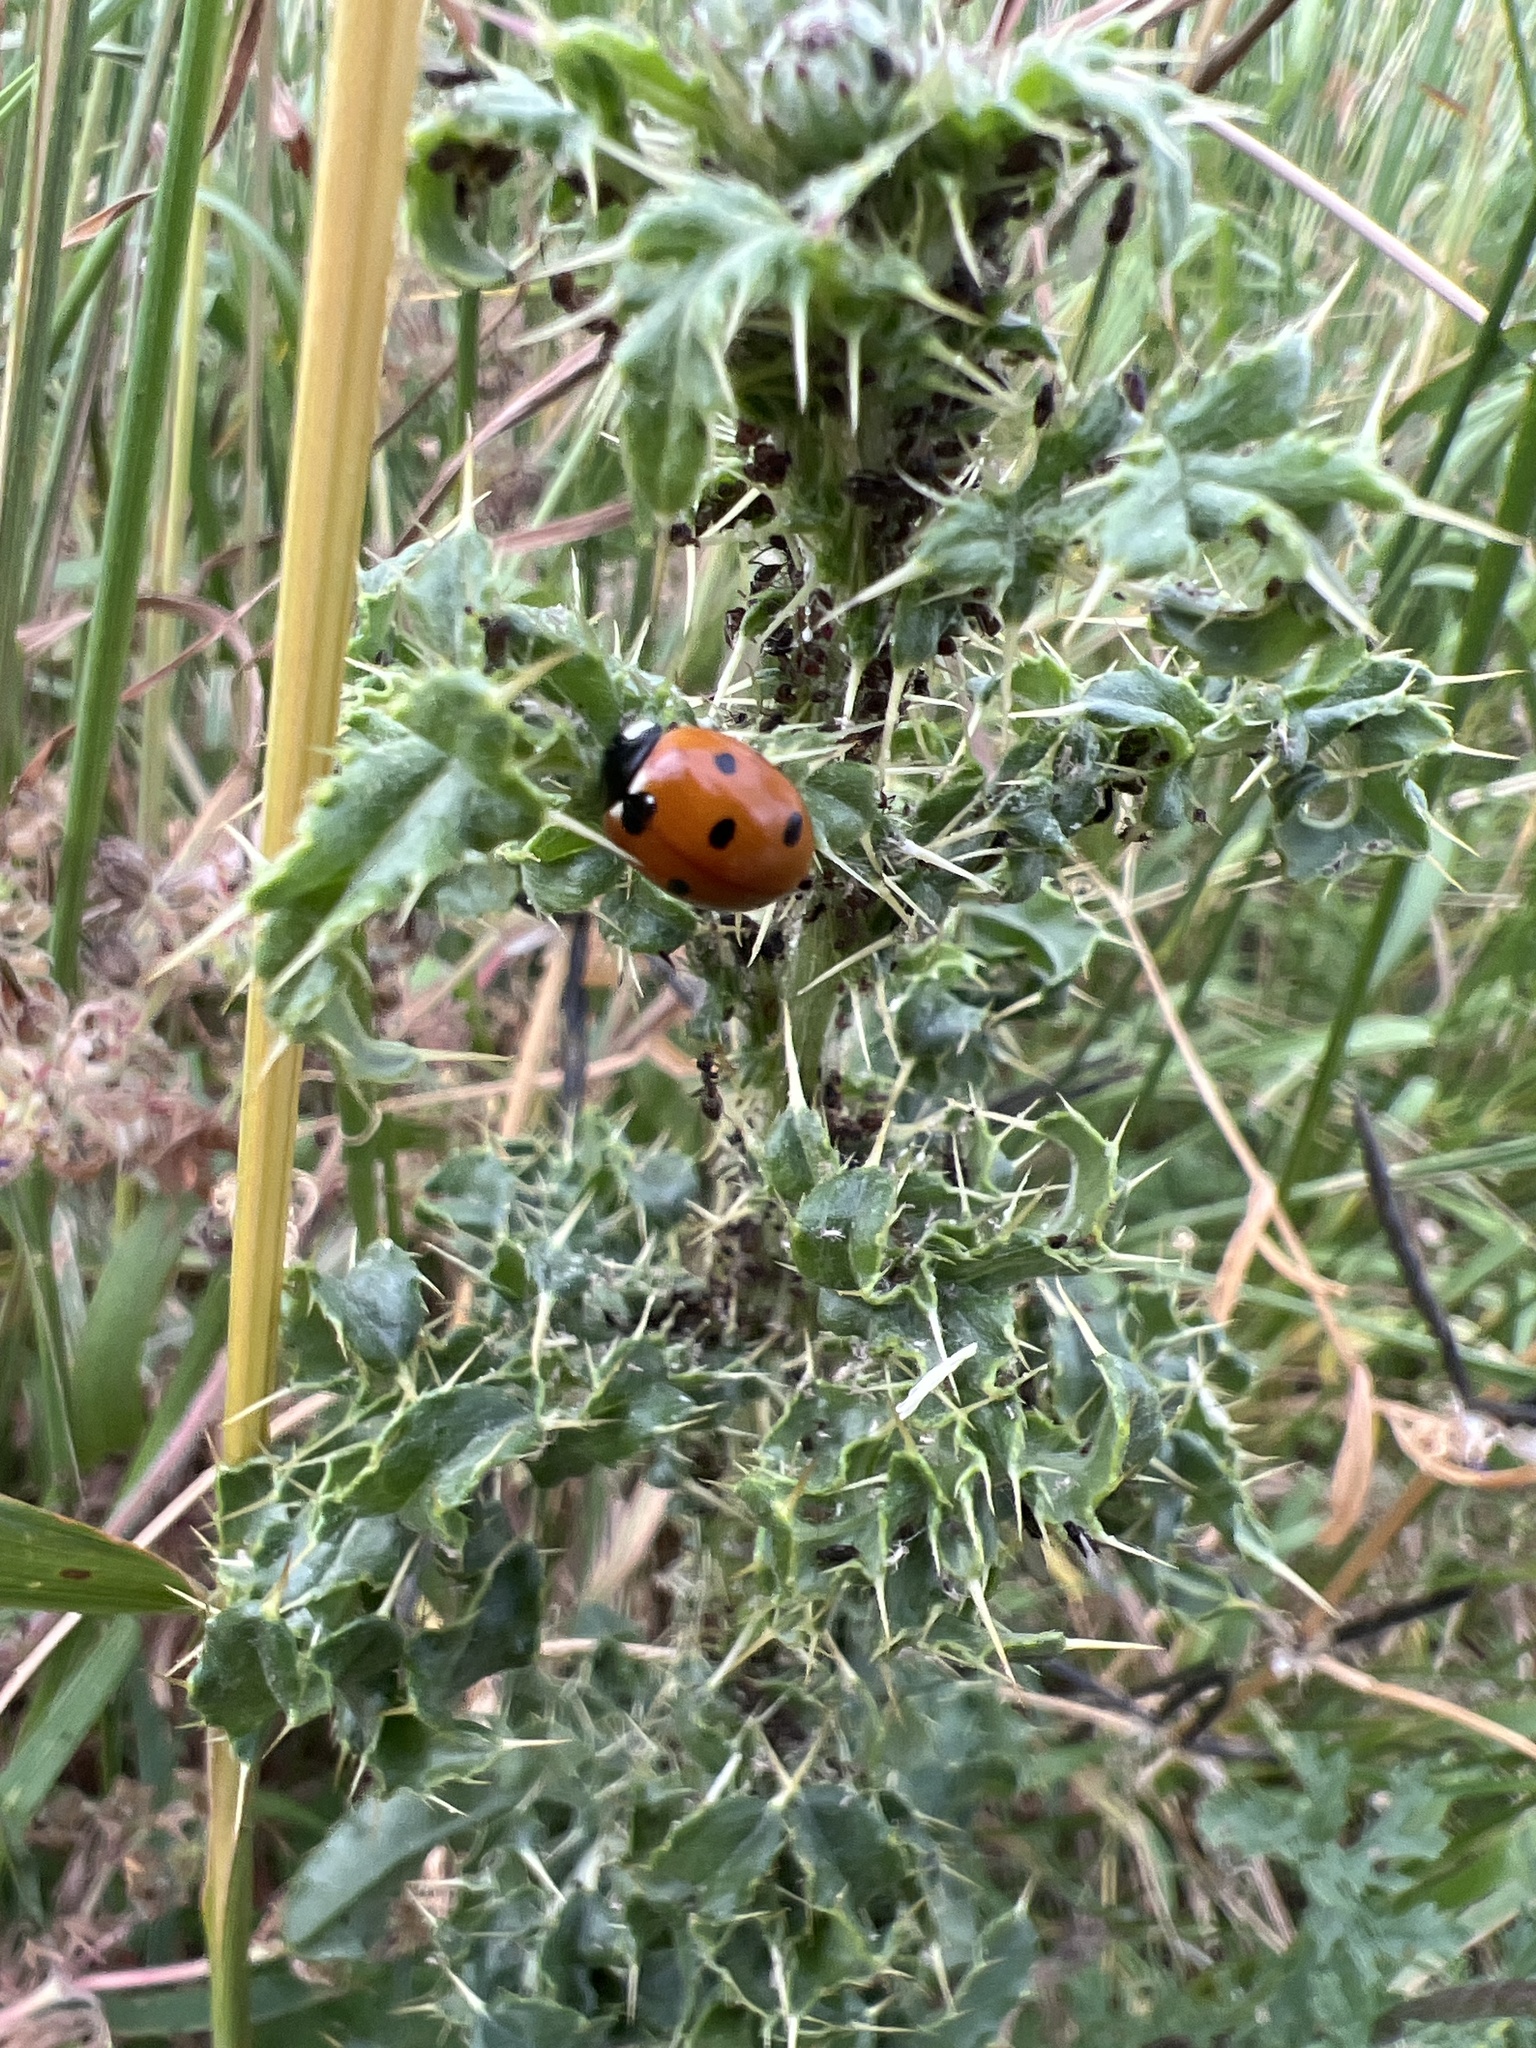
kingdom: Animalia
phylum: Arthropoda
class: Insecta
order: Coleoptera
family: Coccinellidae
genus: Coccinella
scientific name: Coccinella septempunctata
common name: Sevenspotted lady beetle
